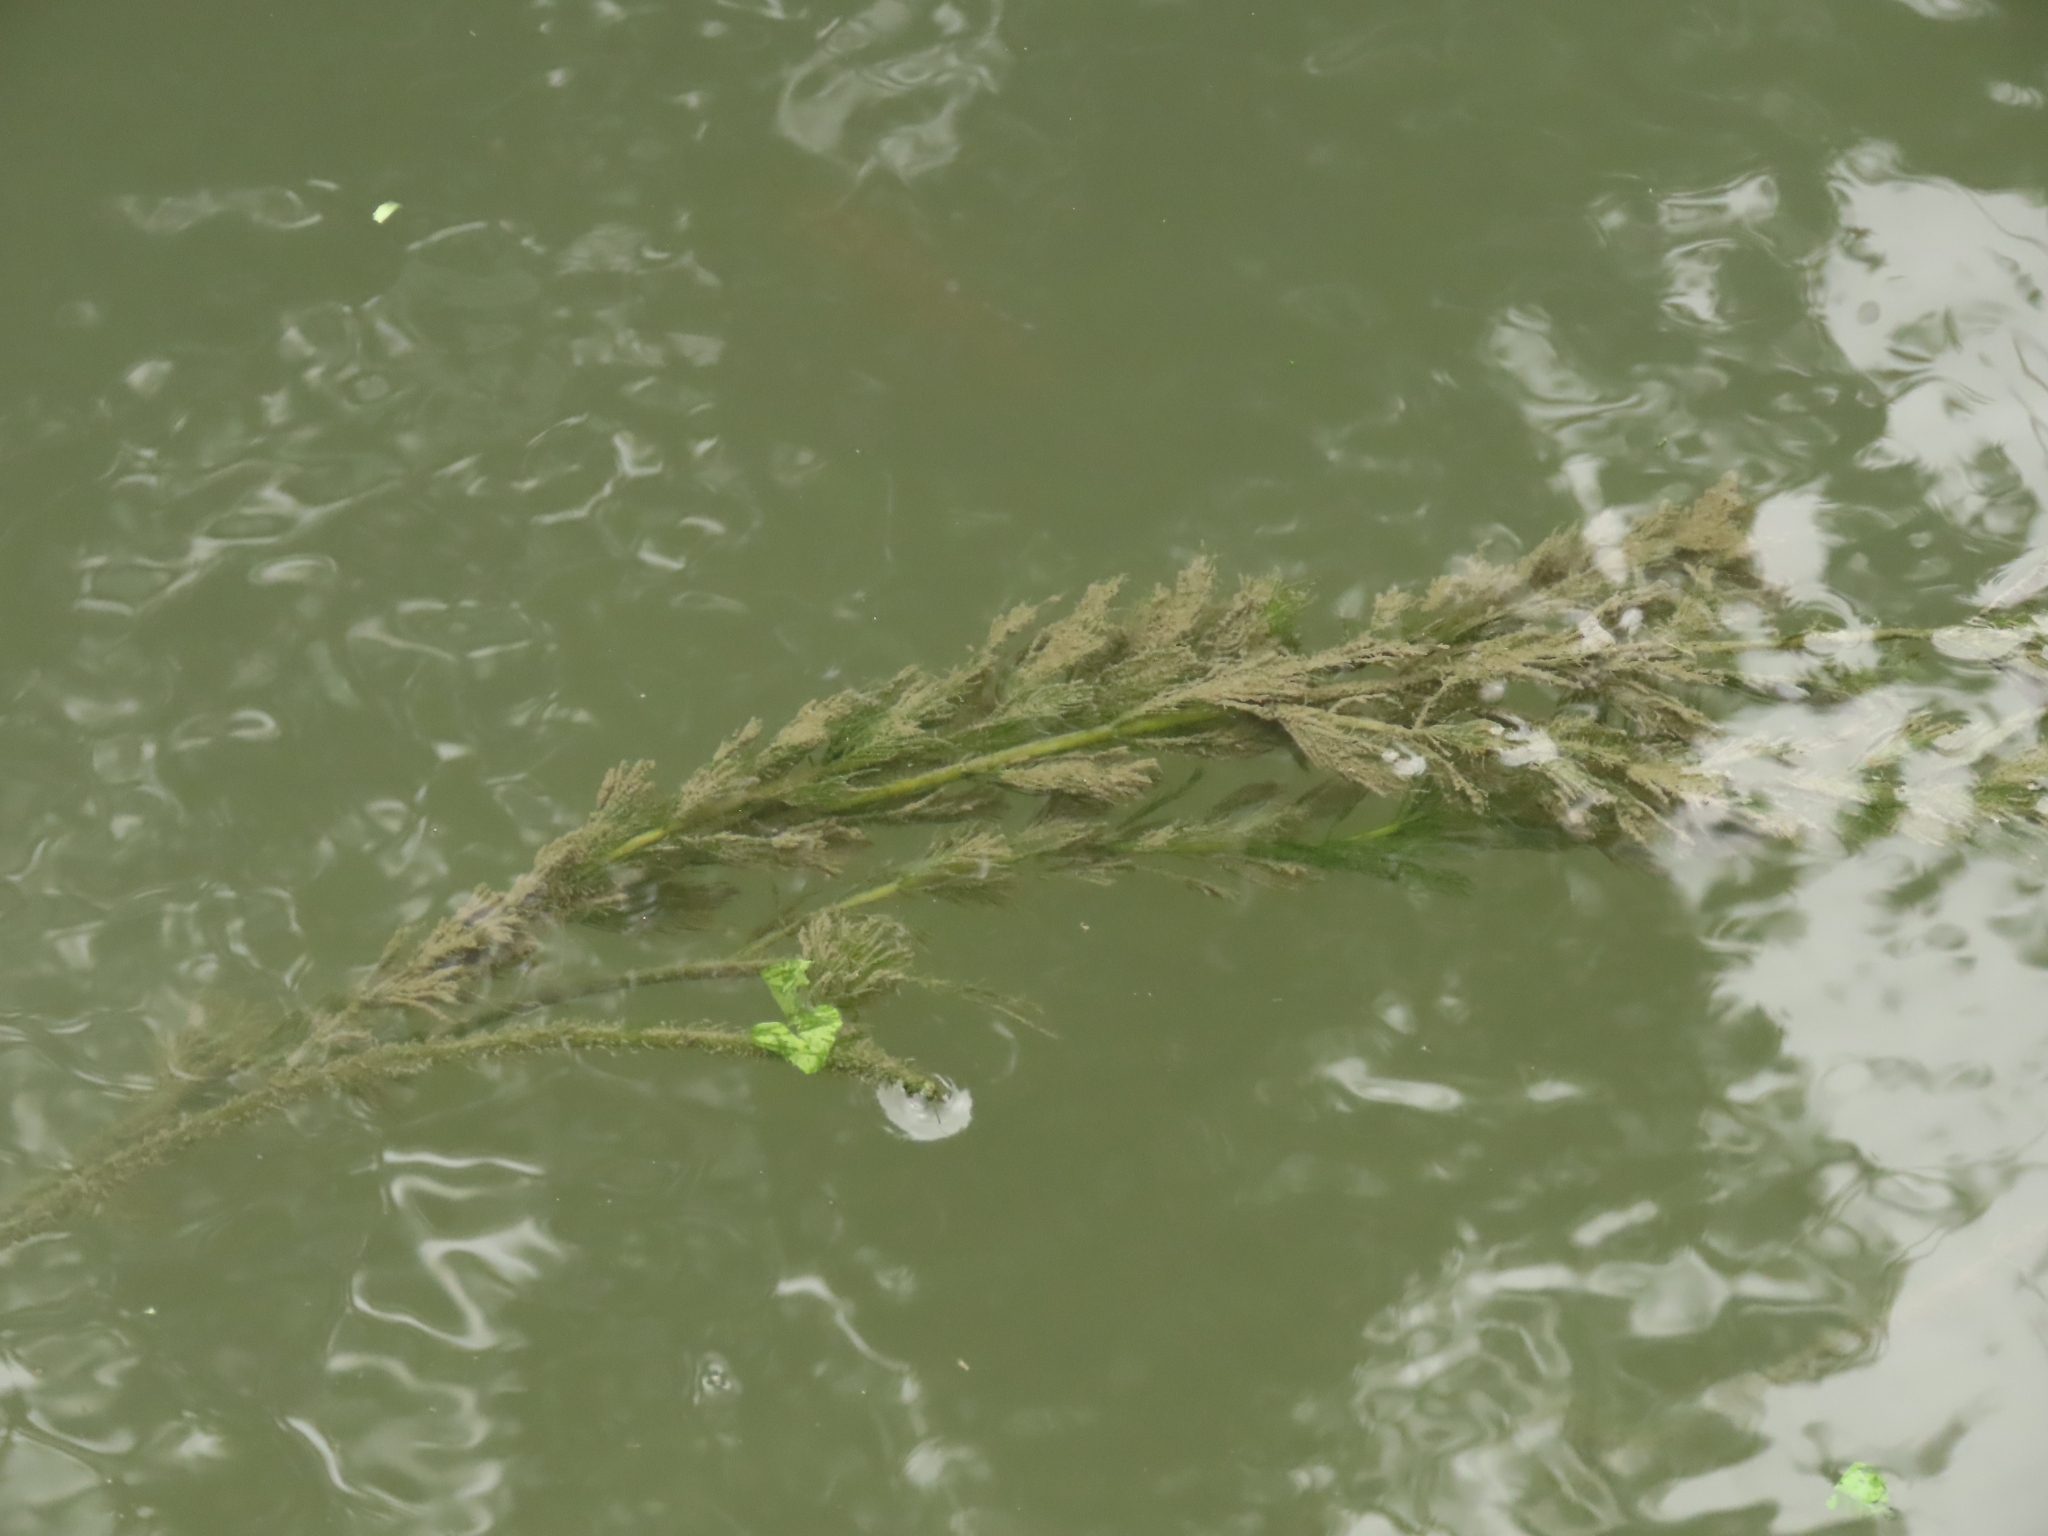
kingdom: Plantae
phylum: Tracheophyta
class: Magnoliopsida
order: Saxifragales
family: Haloragaceae
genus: Myriophyllum
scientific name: Myriophyllum spicatum
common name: Spiked water-milfoil
